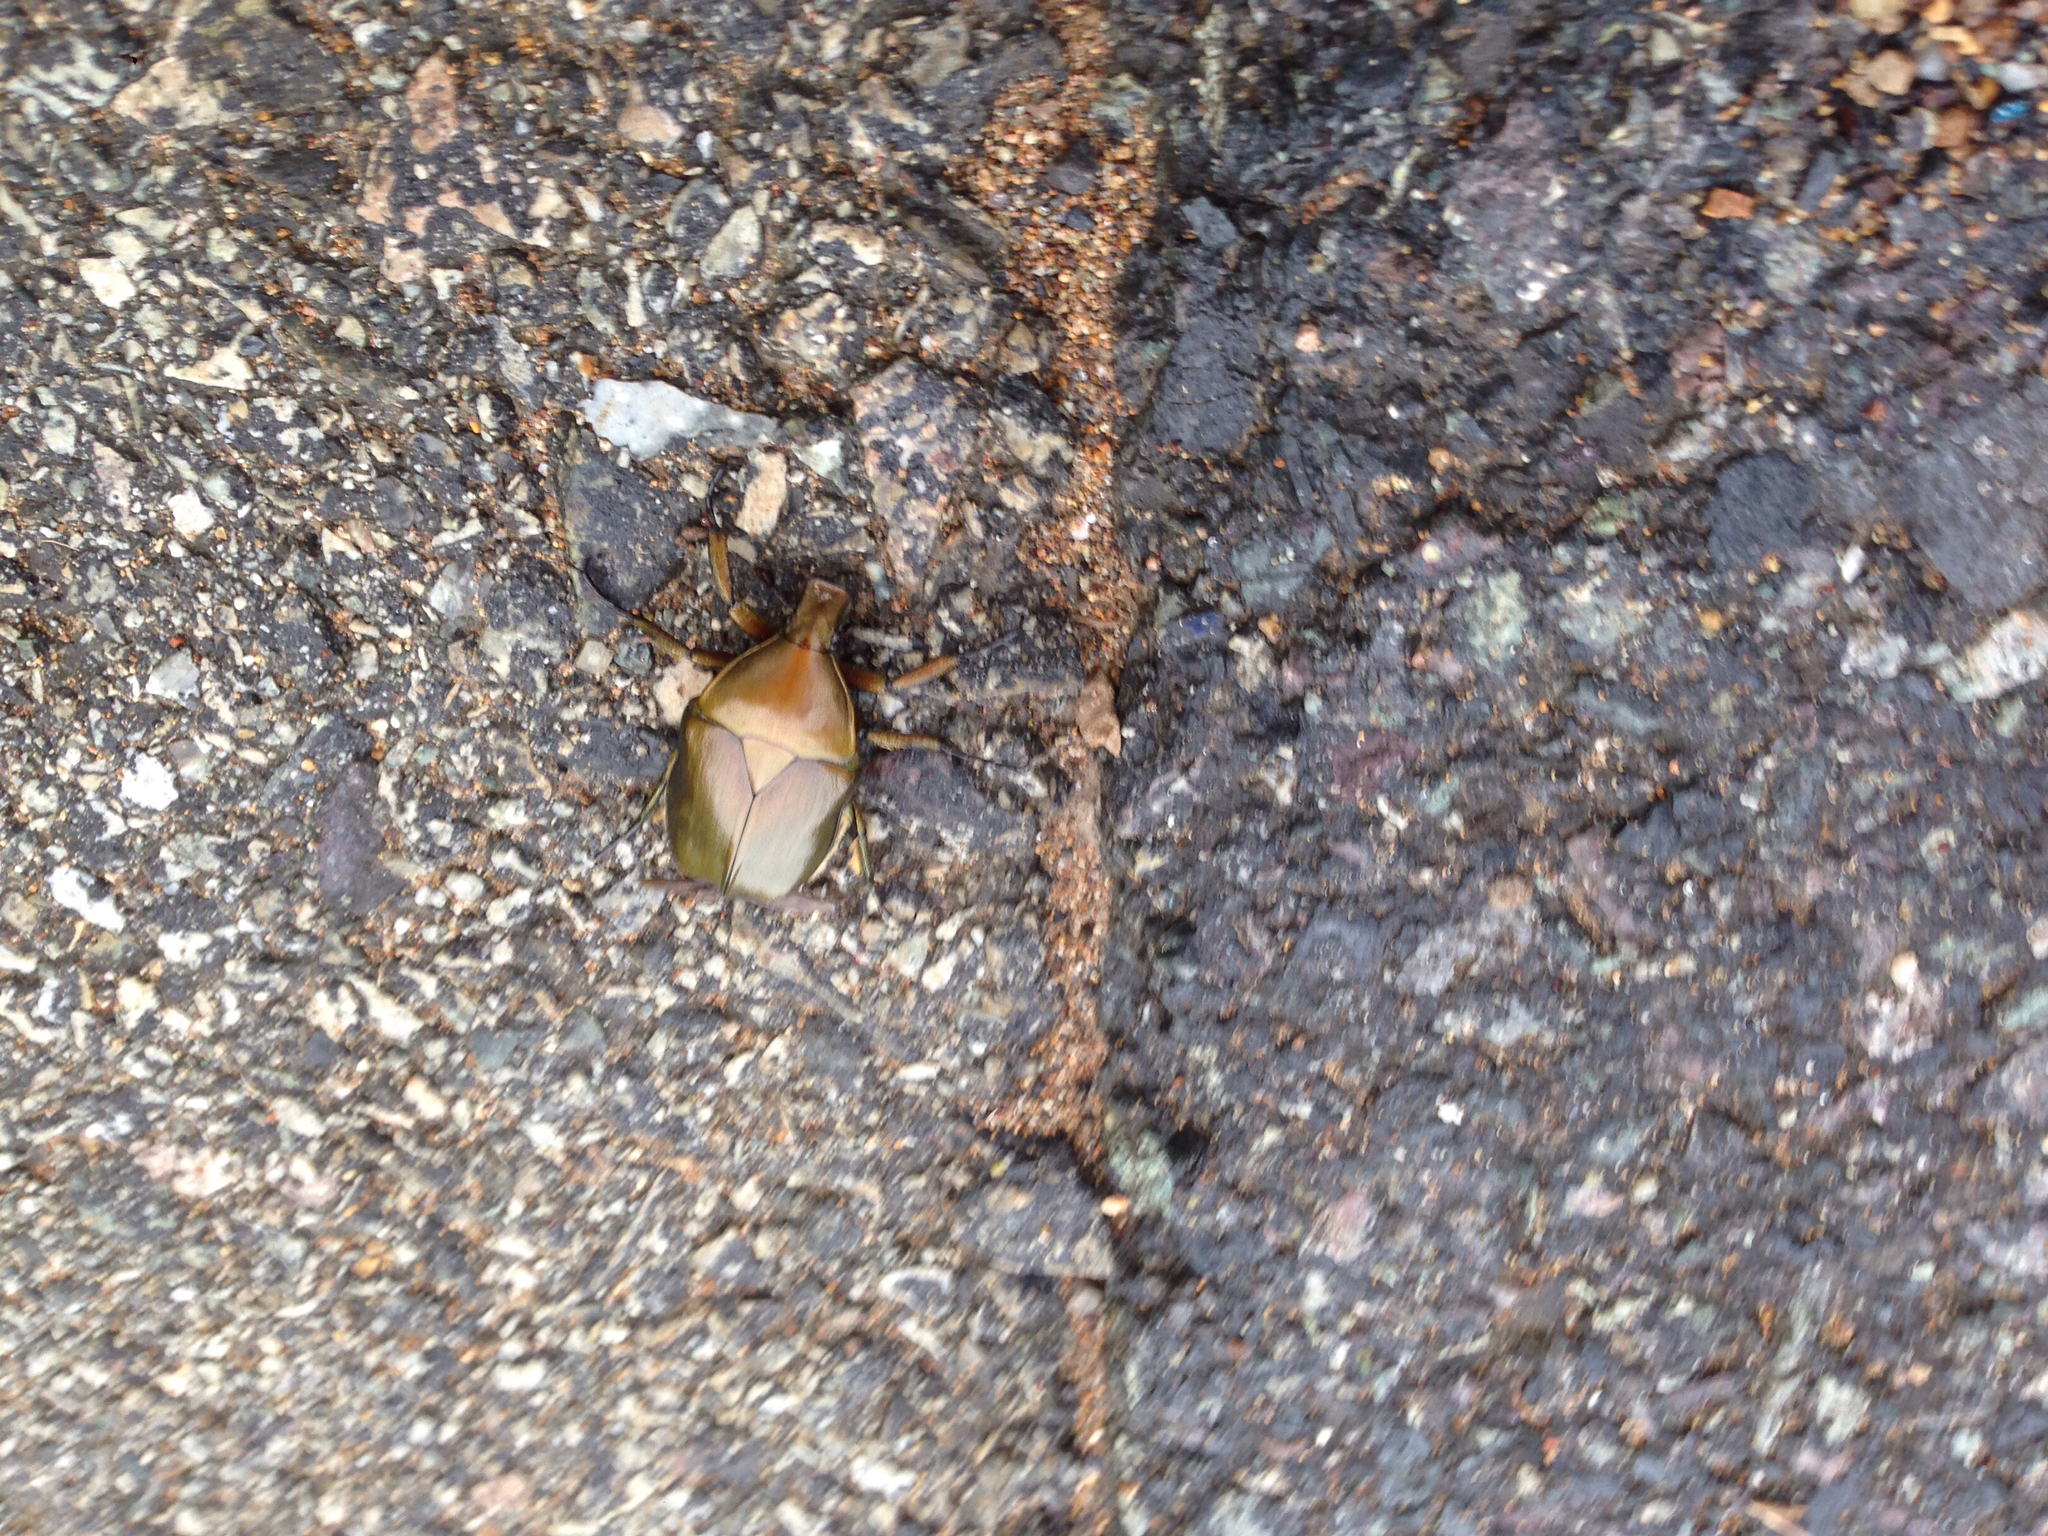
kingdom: Animalia
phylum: Arthropoda
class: Insecta
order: Coleoptera
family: Scarabaeidae
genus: Pseudotorynorrhina
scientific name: Pseudotorynorrhina japonica
